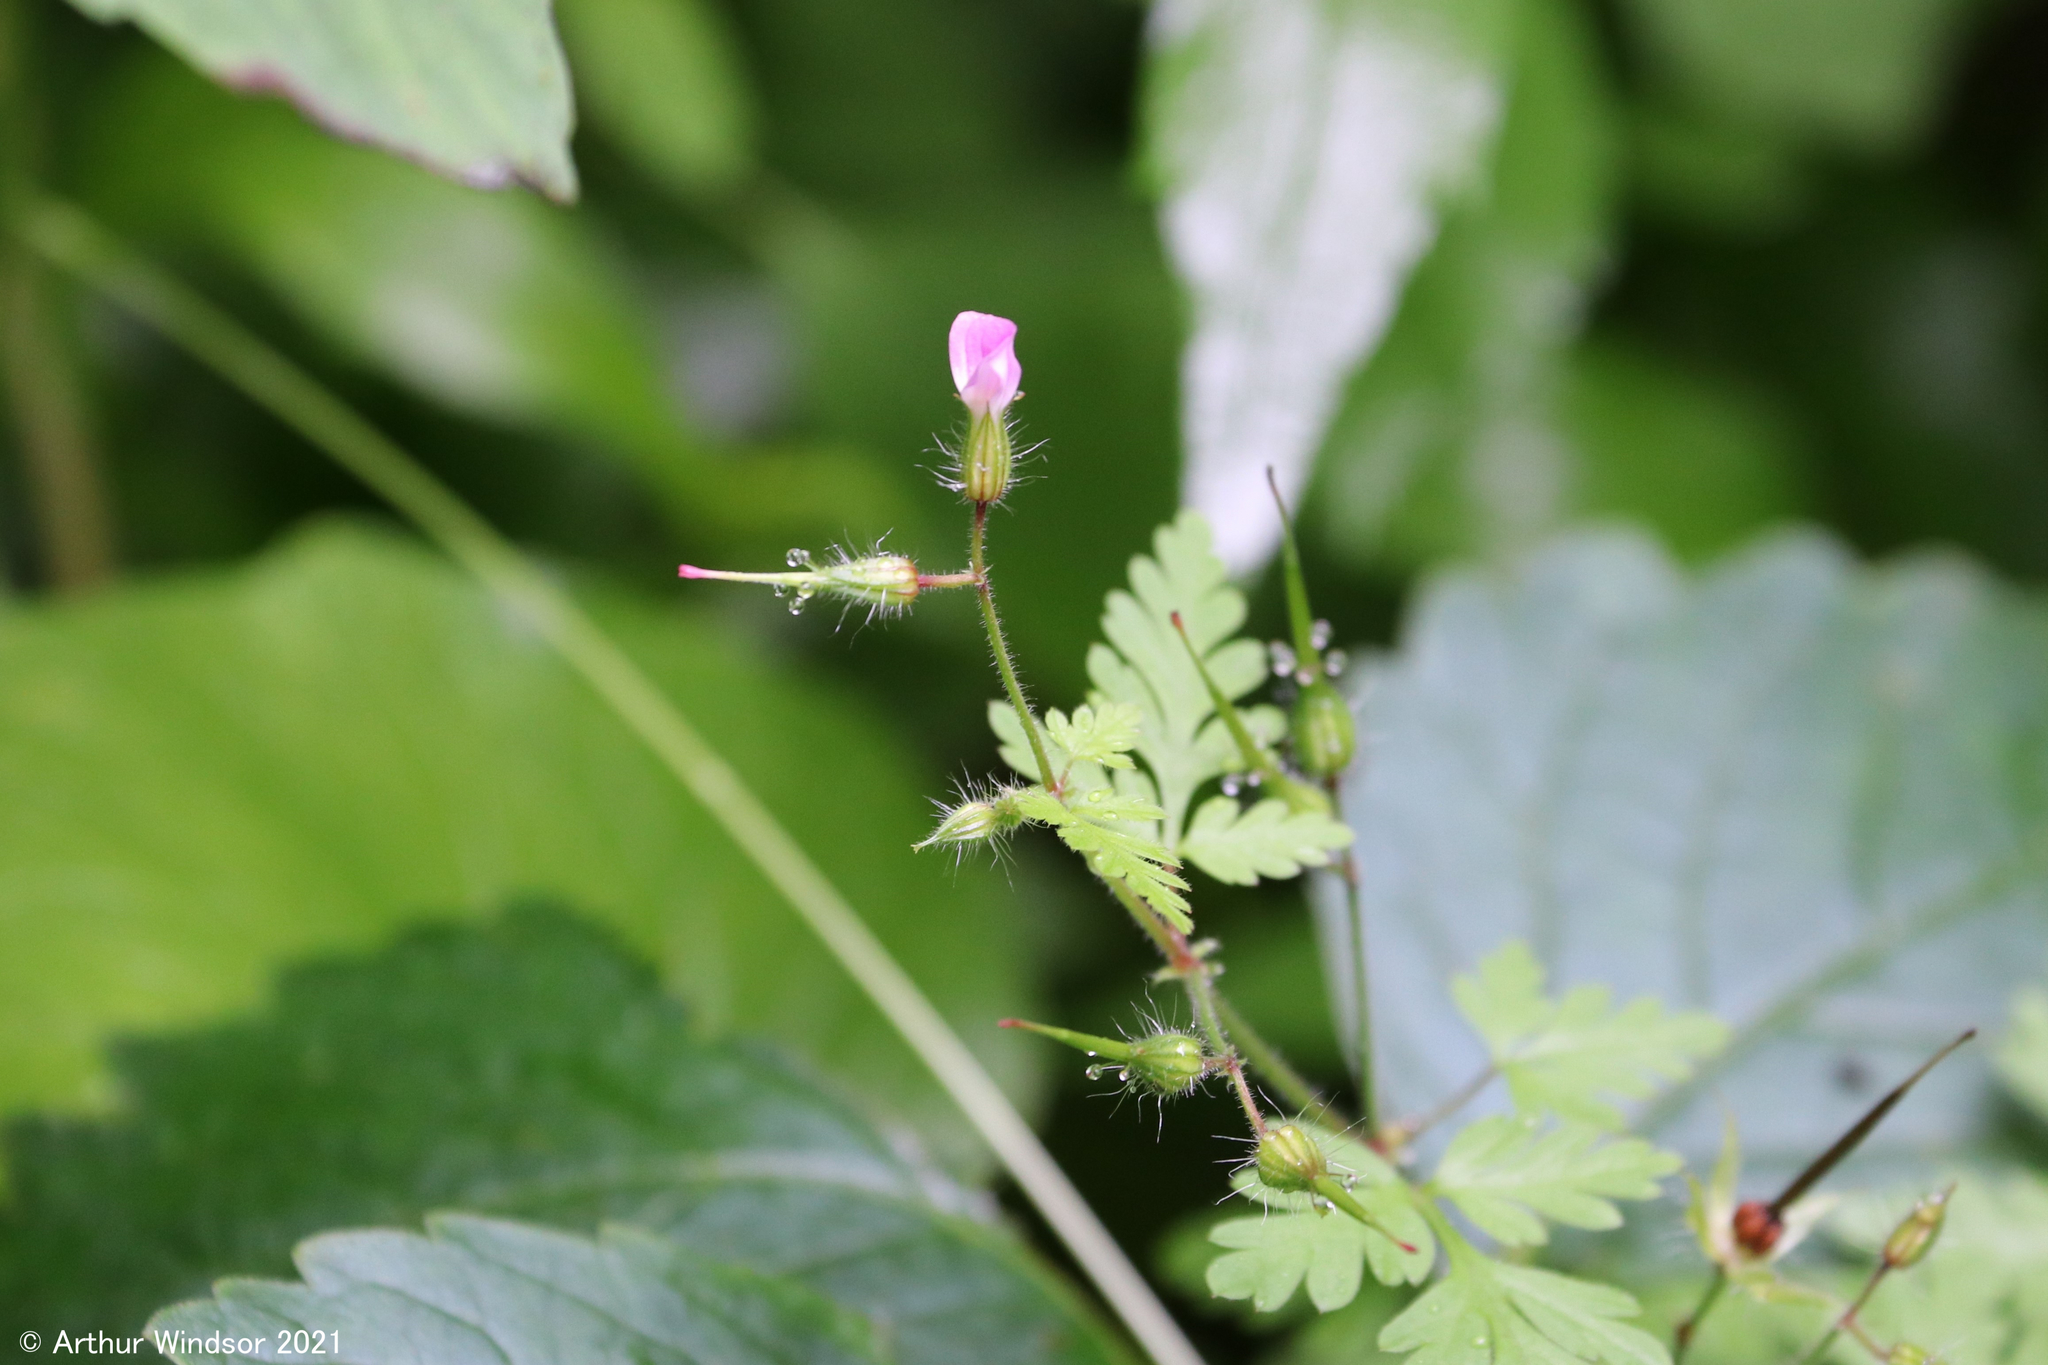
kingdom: Plantae
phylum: Tracheophyta
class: Magnoliopsida
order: Geraniales
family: Geraniaceae
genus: Geranium
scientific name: Geranium robertianum
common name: Herb-robert
